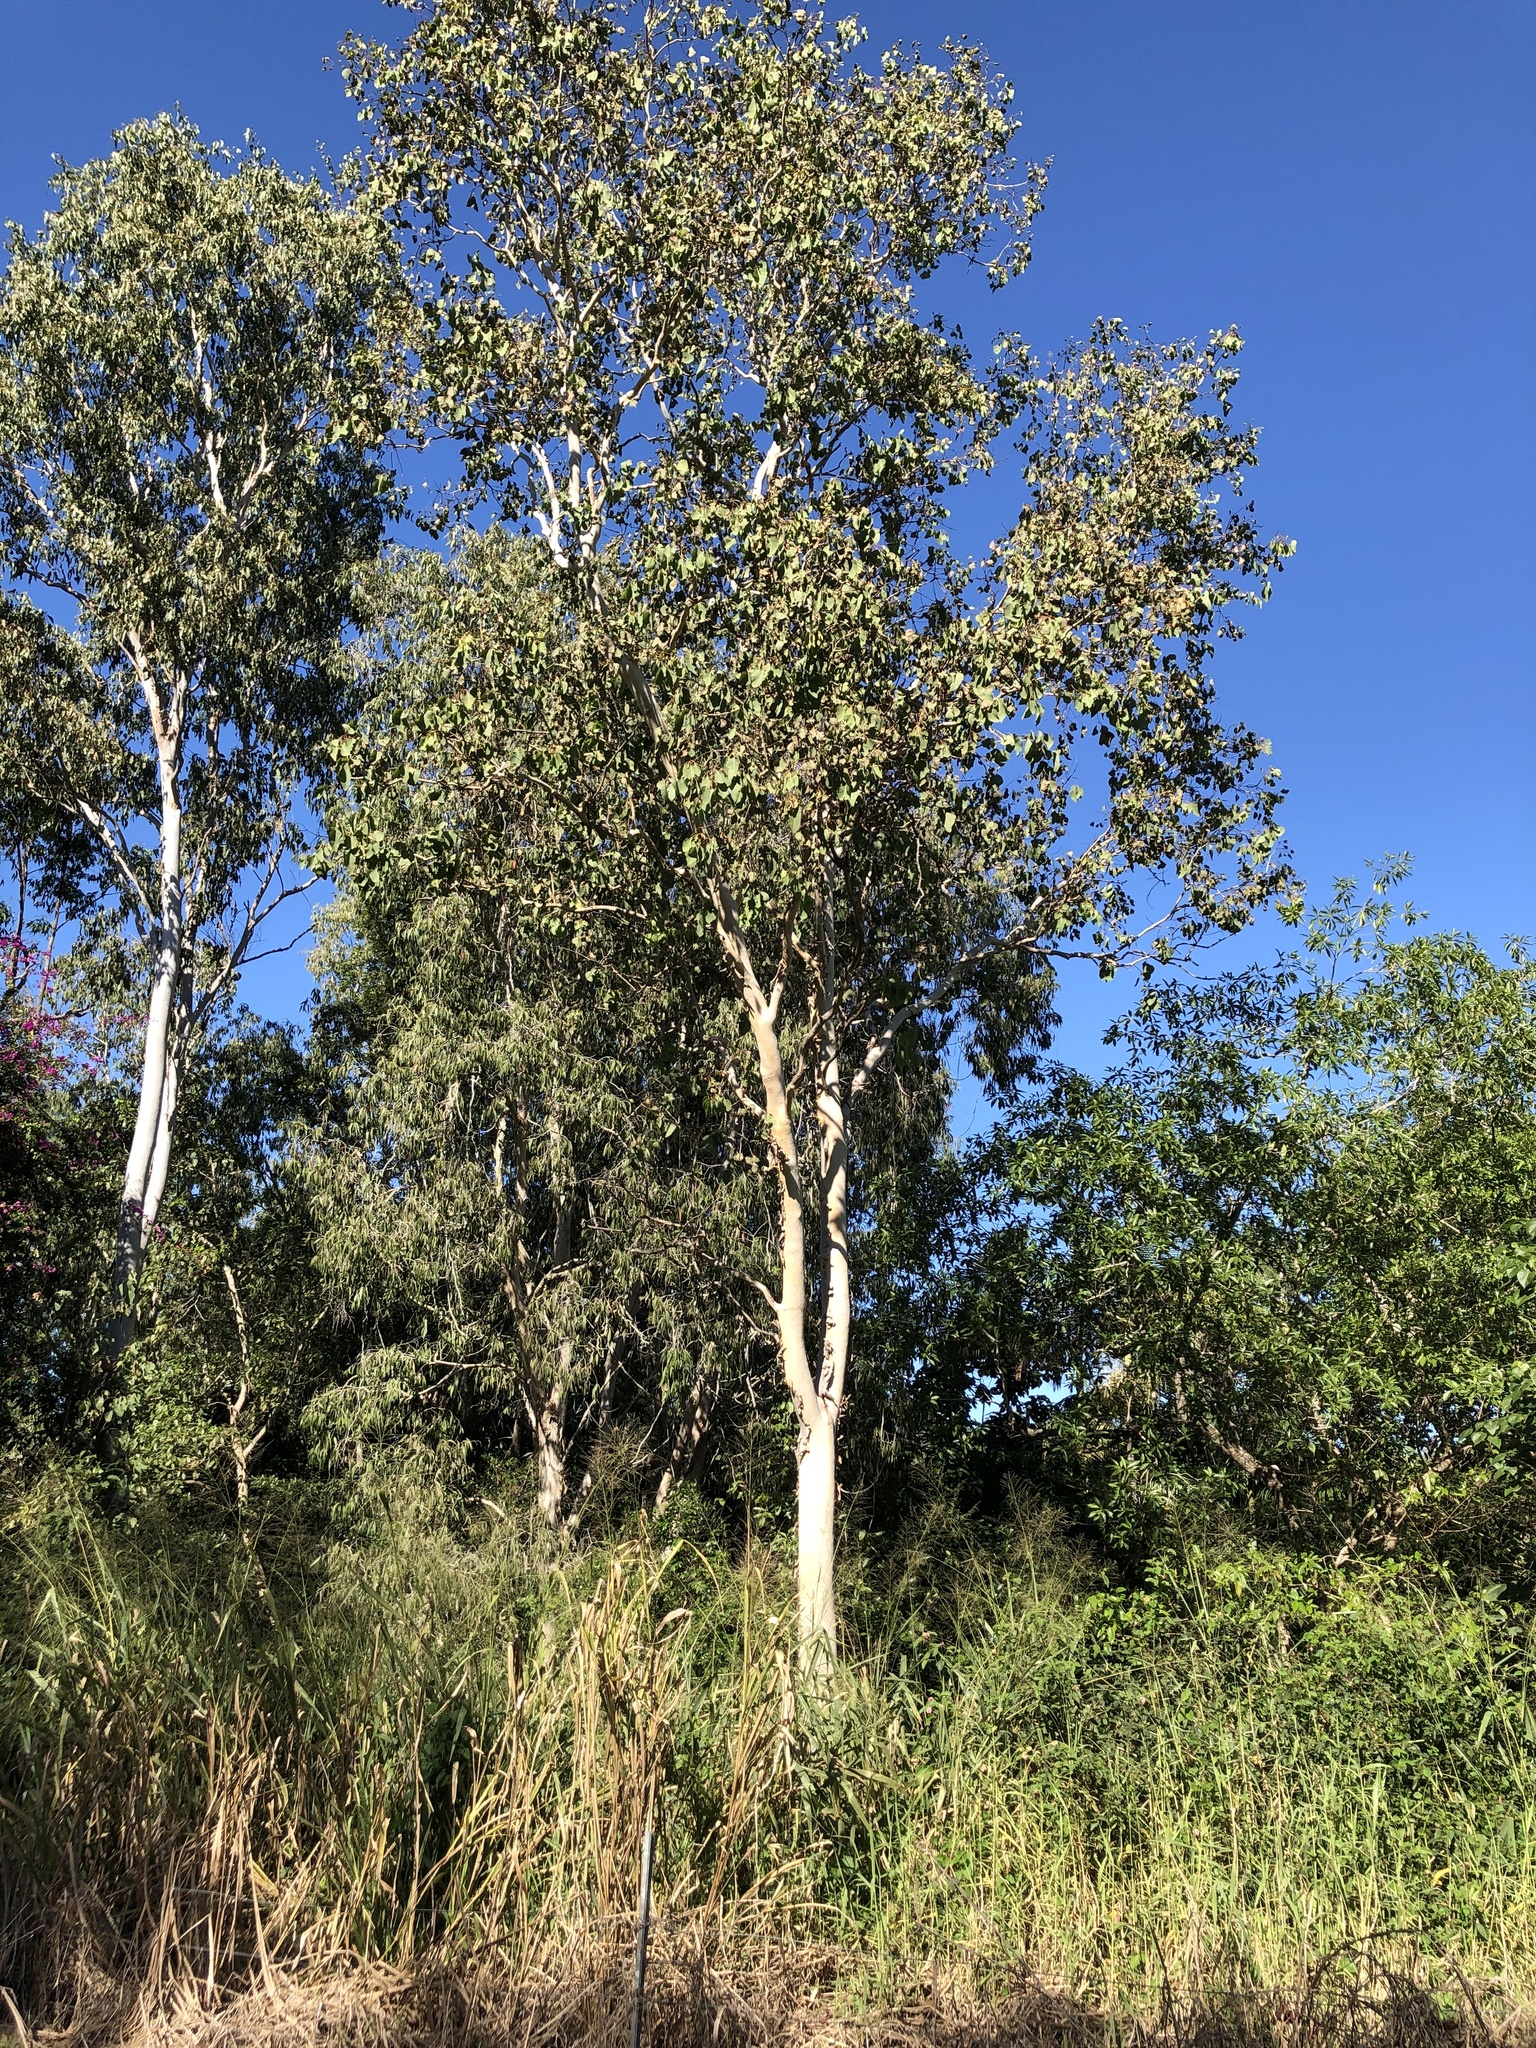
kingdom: Plantae
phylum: Tracheophyta
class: Magnoliopsida
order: Myrtales
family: Myrtaceae
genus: Eucalyptus
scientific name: Eucalyptus platyphylla
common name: Poplar-gum
